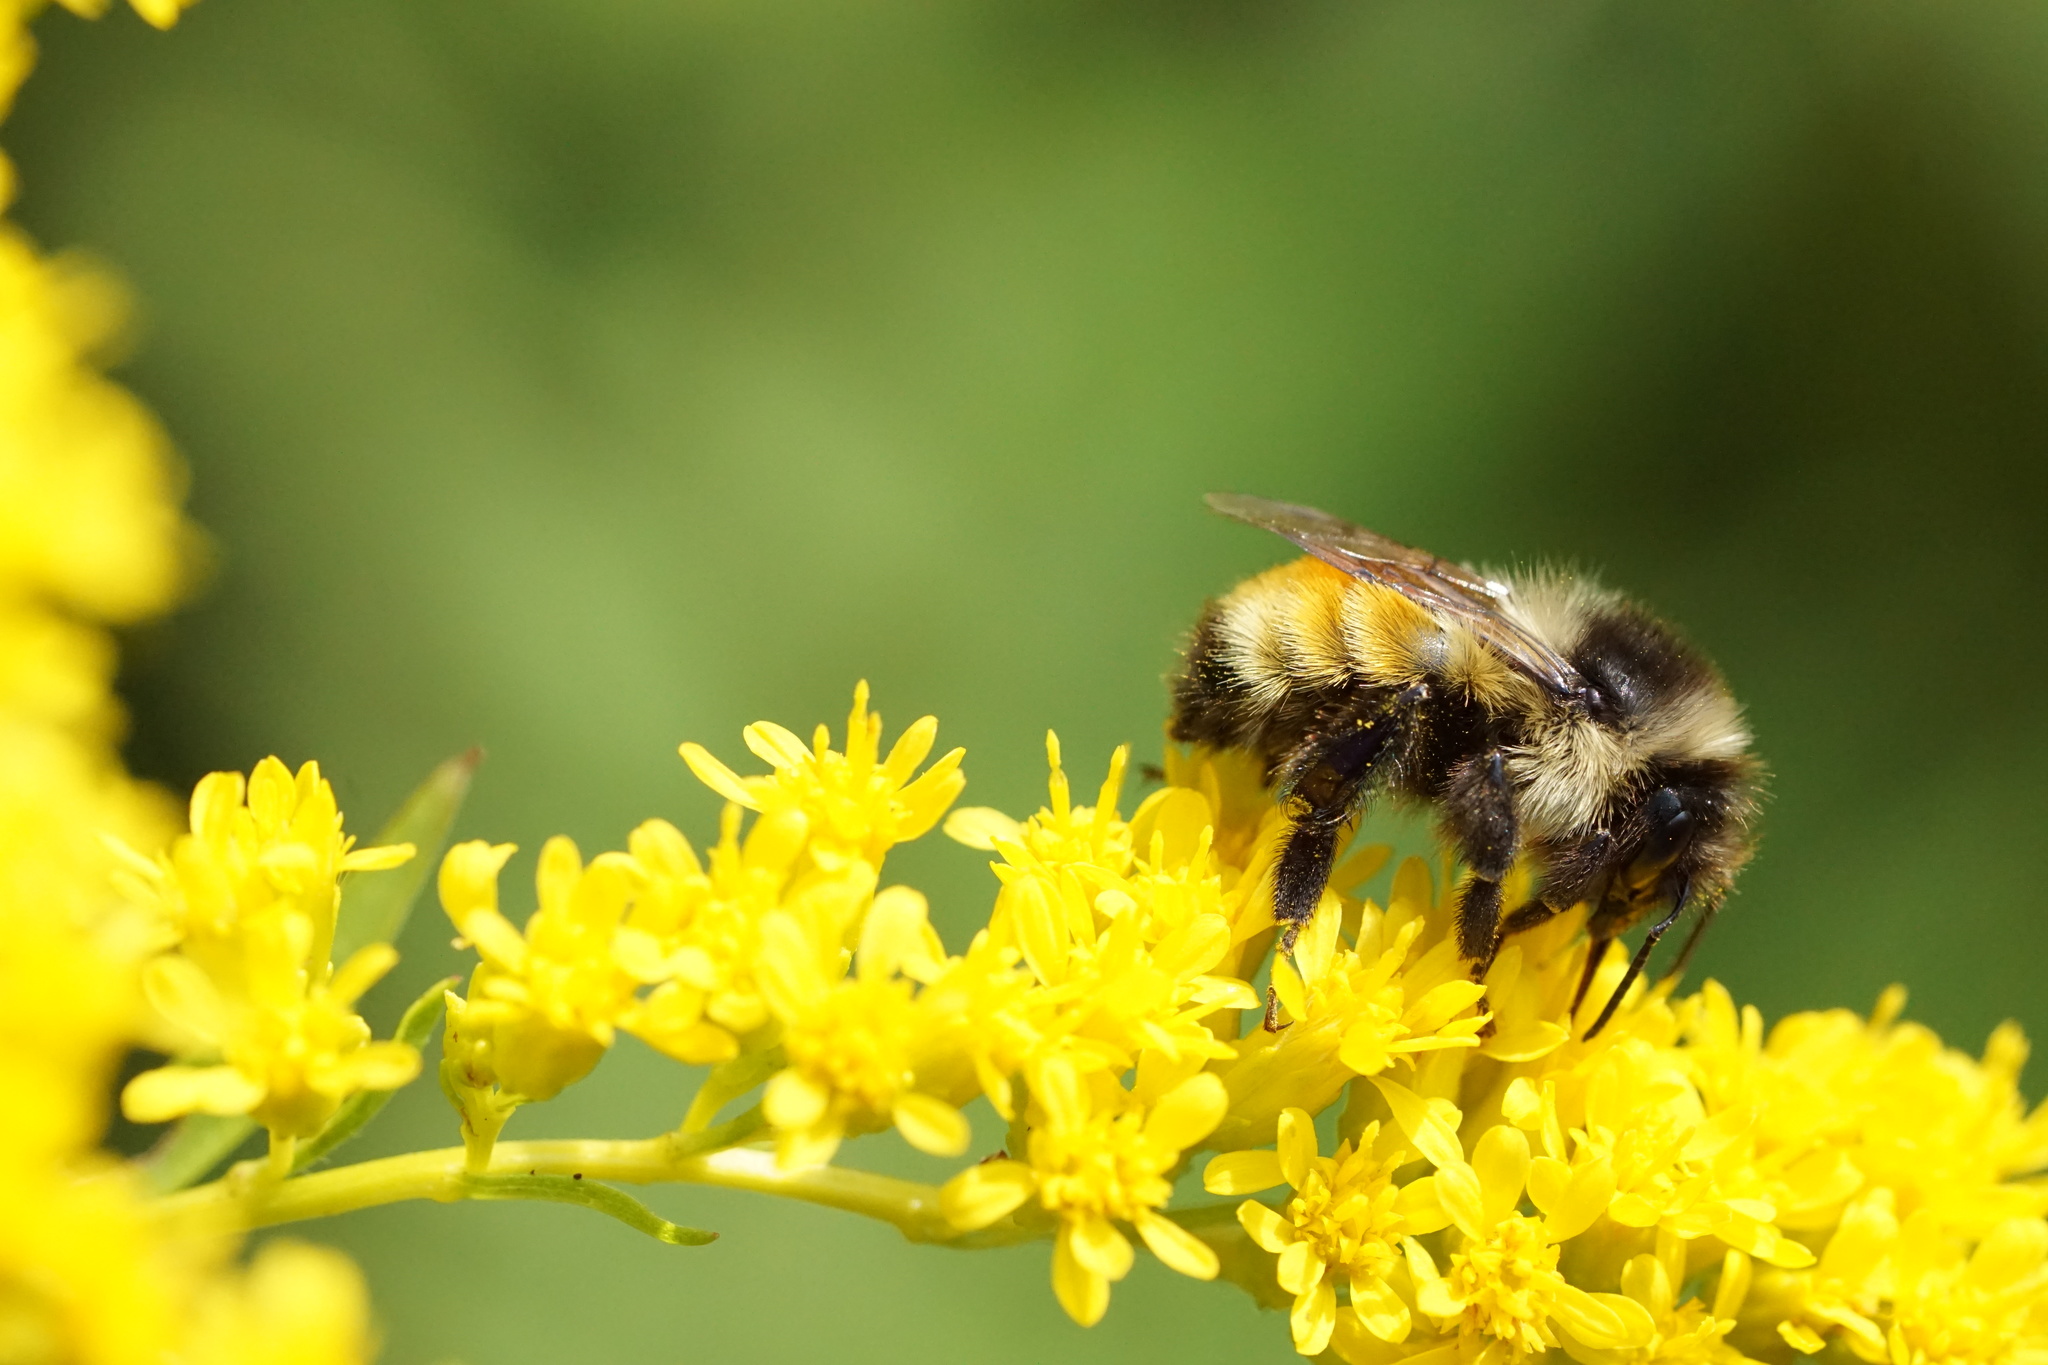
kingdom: Animalia
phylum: Arthropoda
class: Insecta
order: Hymenoptera
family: Apidae
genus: Bombus
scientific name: Bombus ternarius
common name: Tri-colored bumble bee
